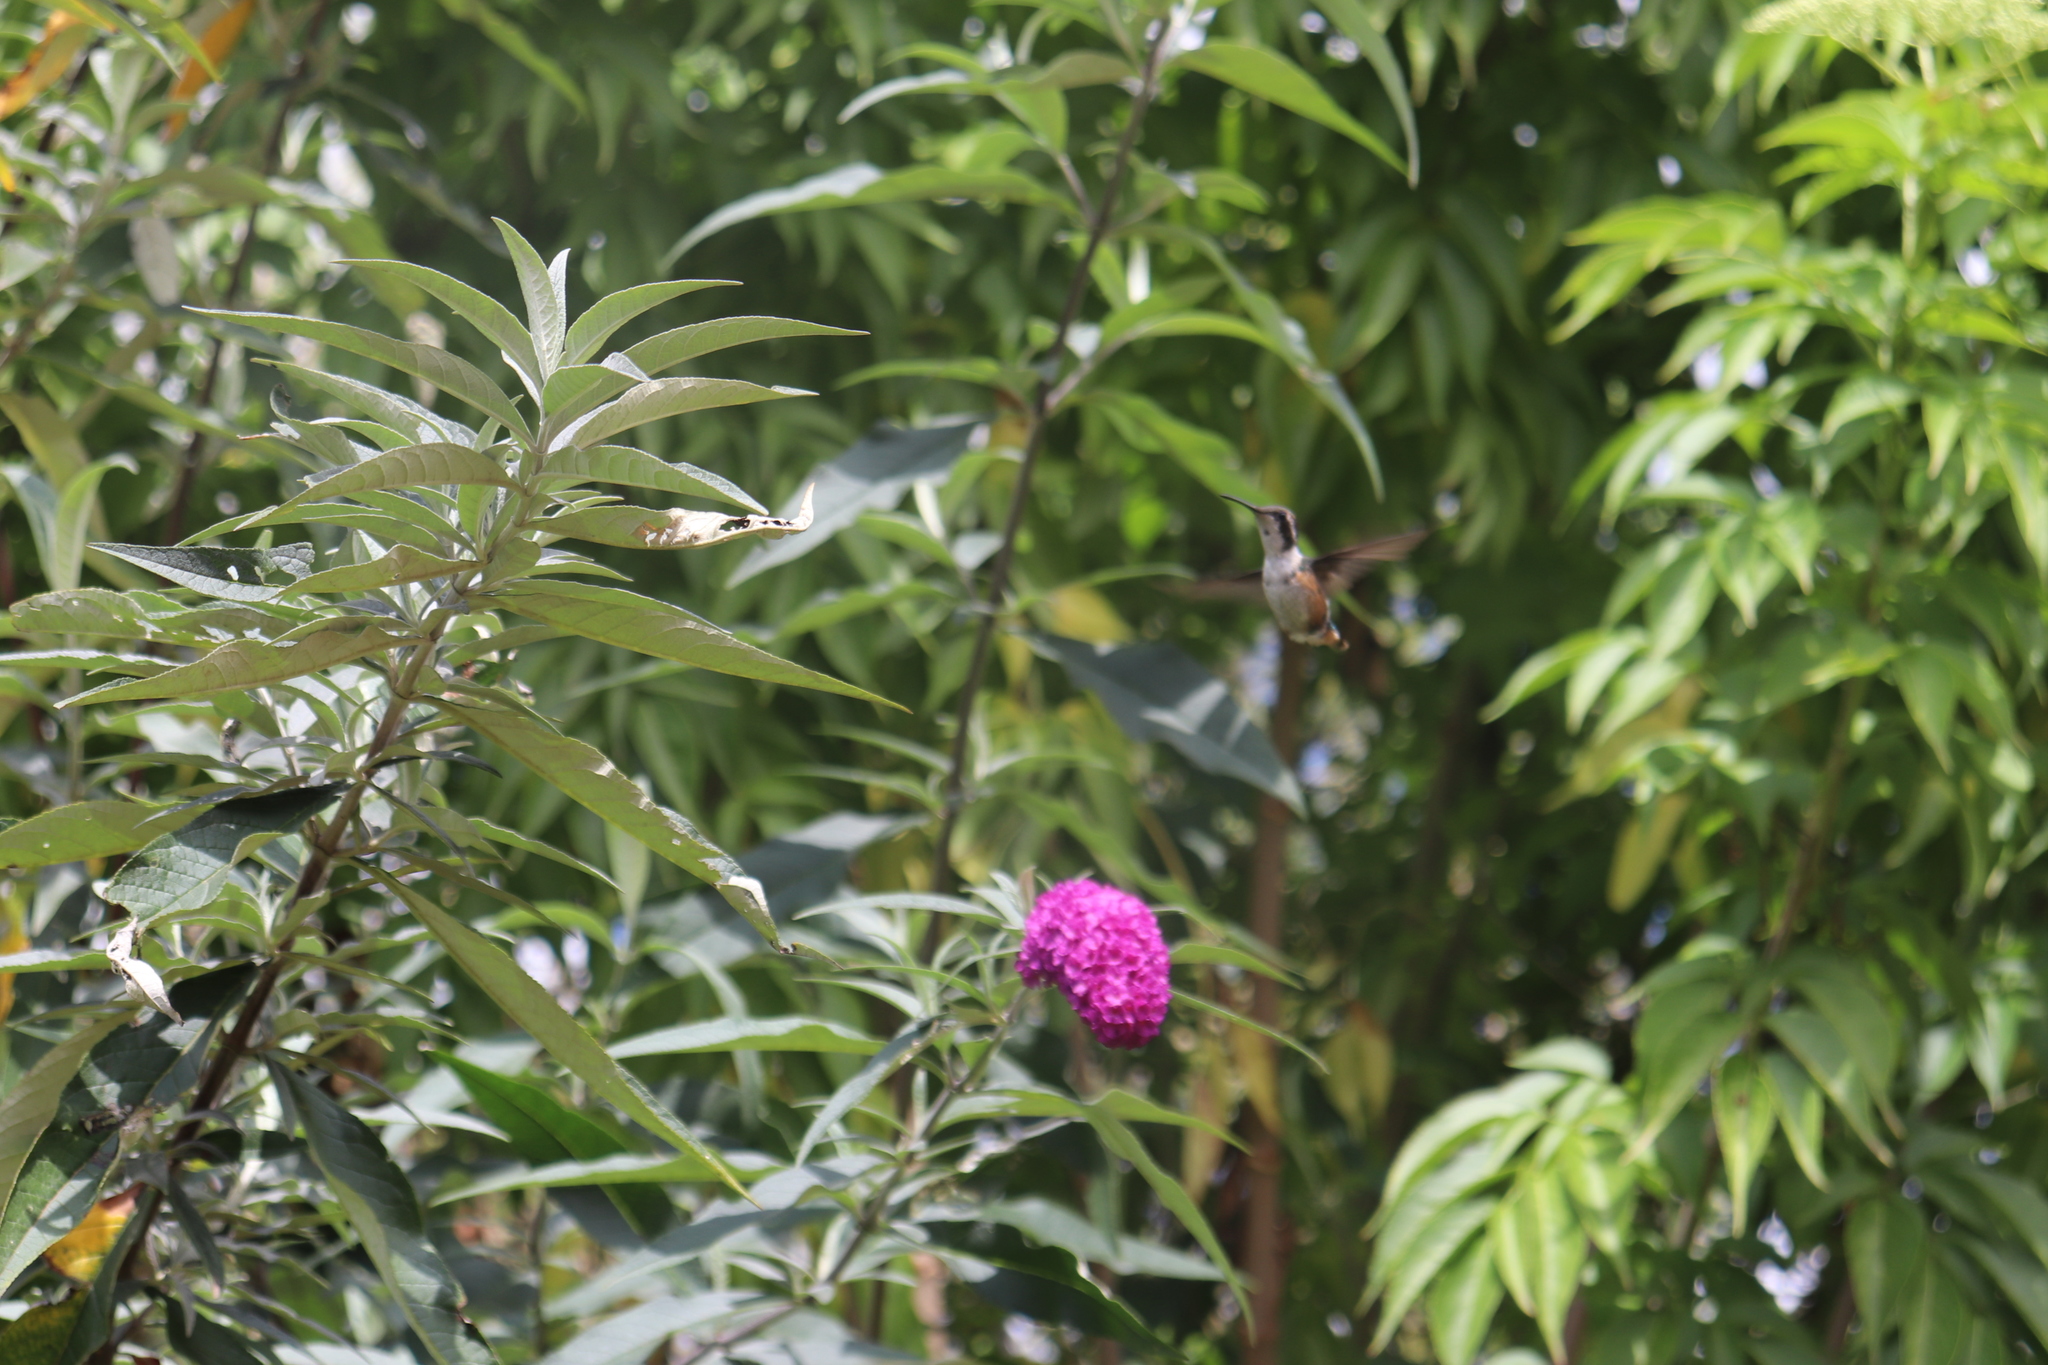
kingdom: Animalia
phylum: Chordata
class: Aves
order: Apodiformes
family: Trochilidae
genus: Chaetocercus
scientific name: Chaetocercus mulsant
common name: White-bellied woodstar
